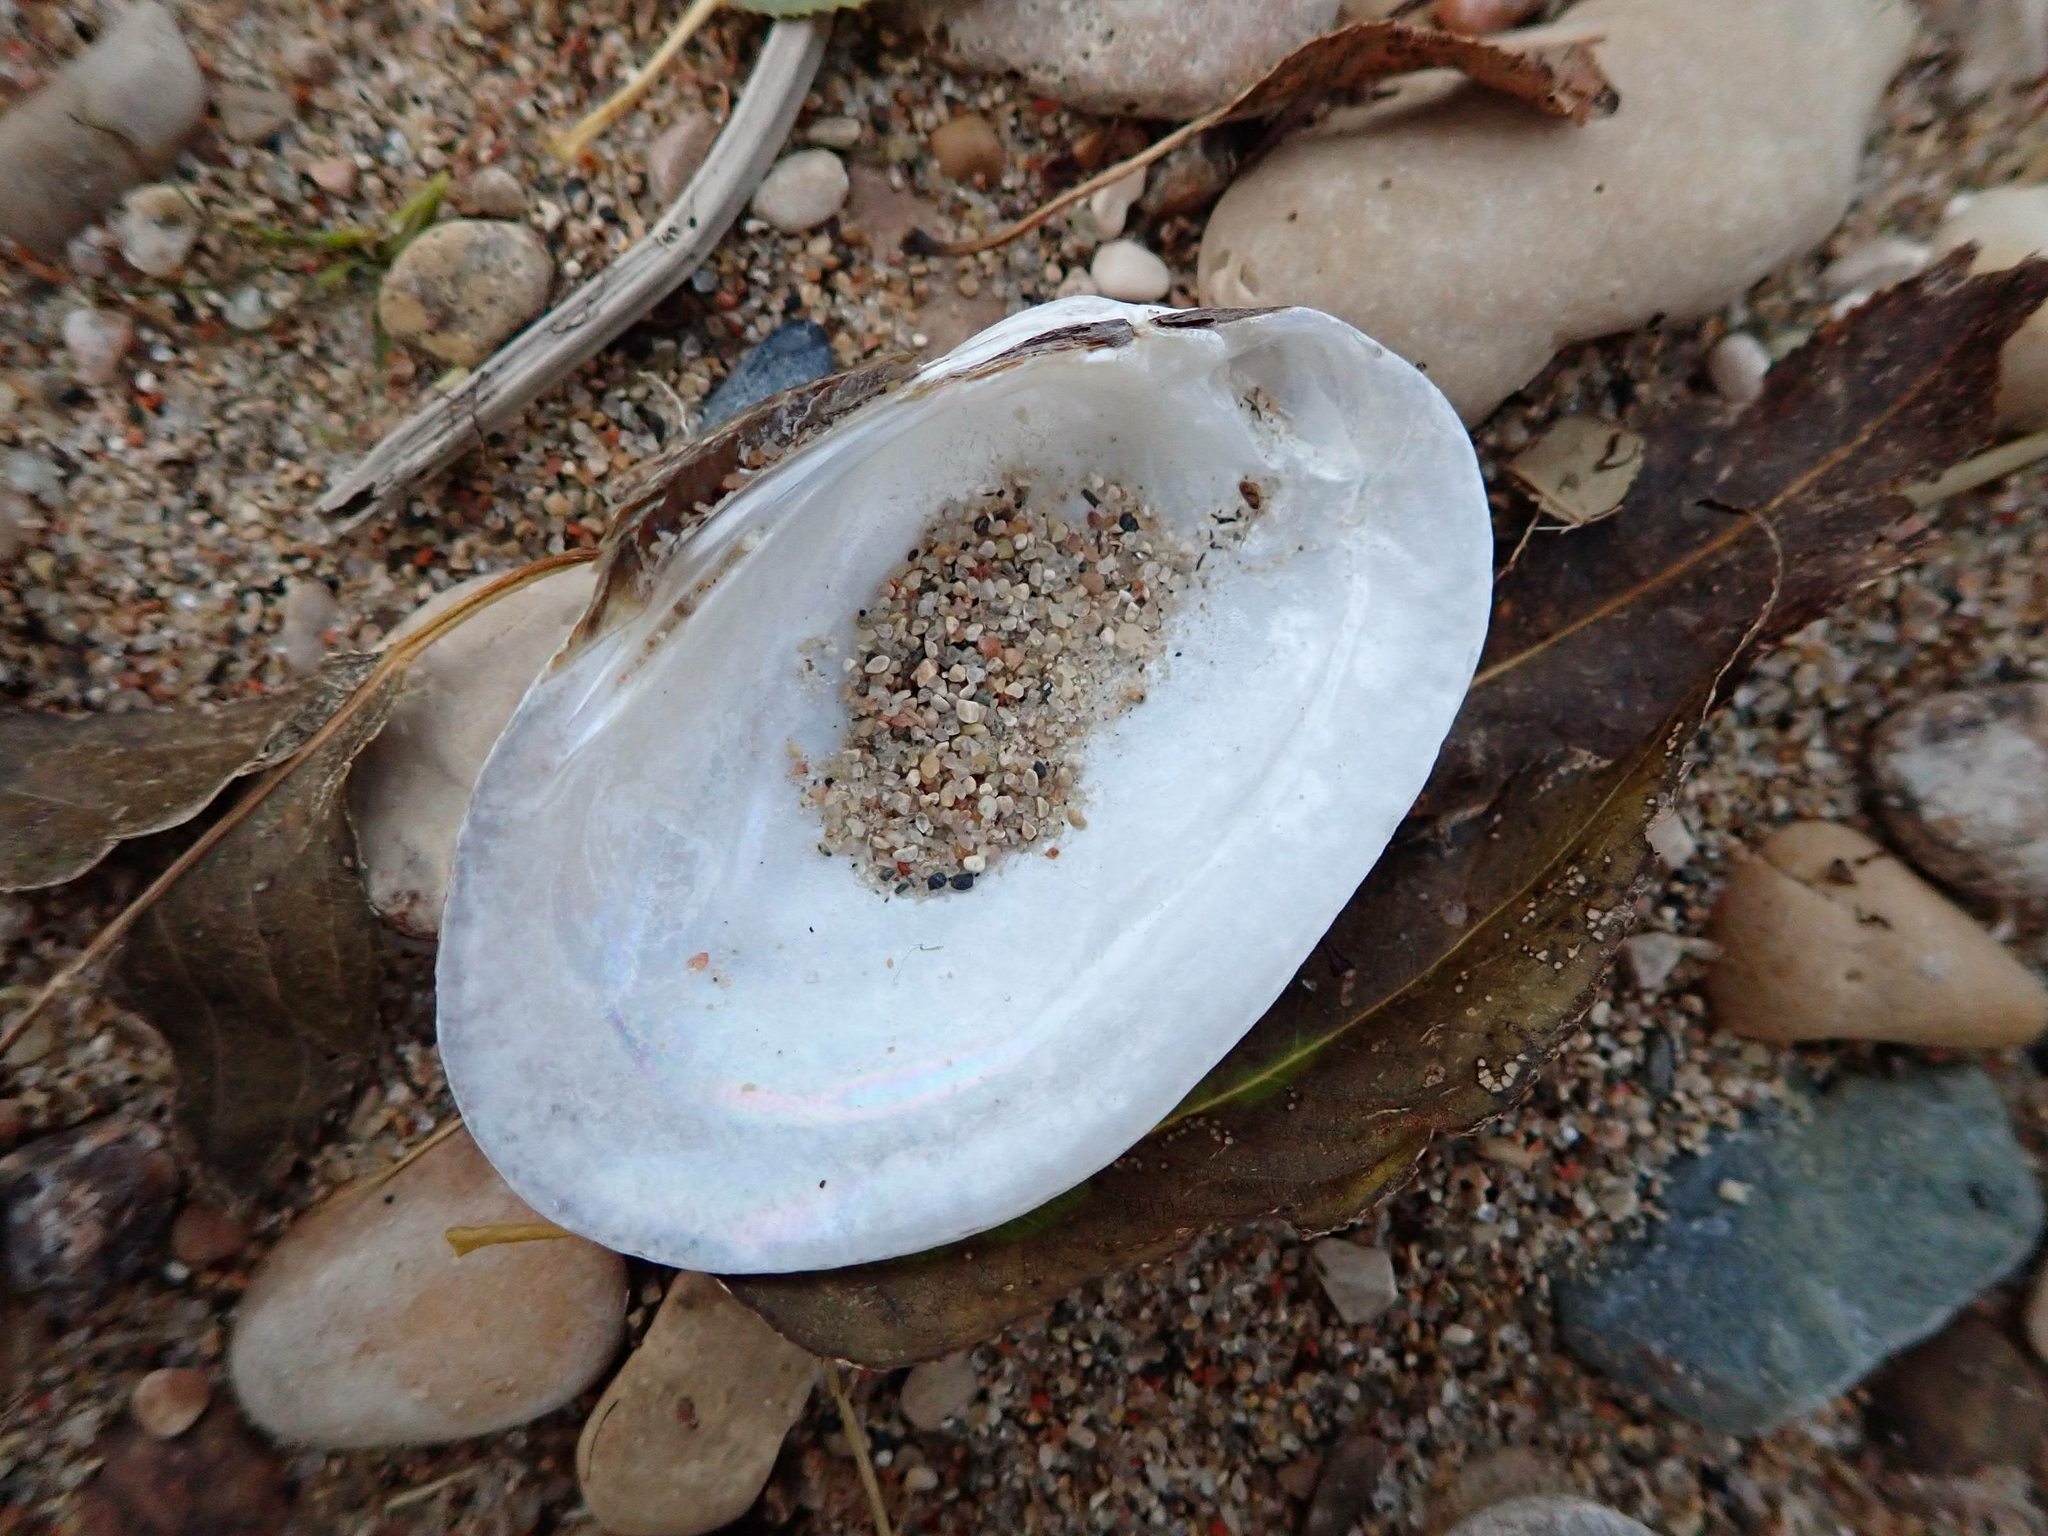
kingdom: Animalia
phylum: Mollusca
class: Bivalvia
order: Unionida
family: Unionidae
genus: Lampsilis
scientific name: Lampsilis siliquoidea
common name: Fatmucket
